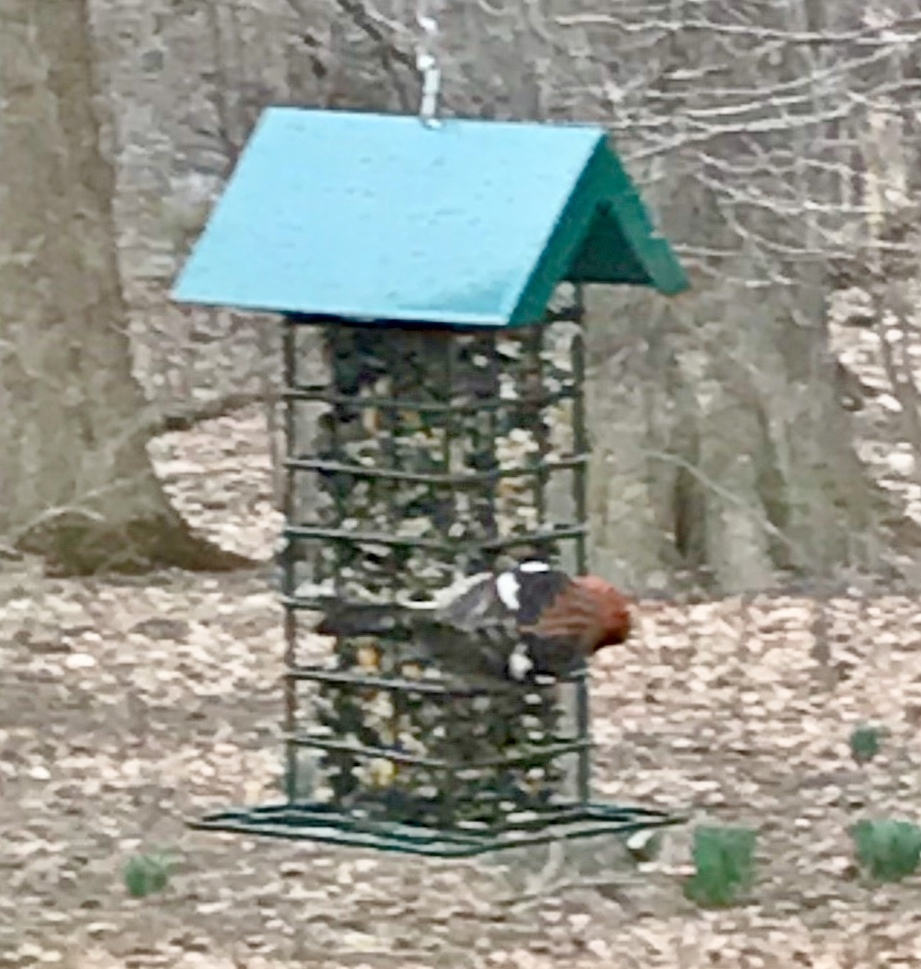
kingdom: Animalia
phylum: Chordata
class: Aves
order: Passeriformes
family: Fringillidae
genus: Loxia
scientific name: Loxia leucoptera
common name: Two-barred crossbill
